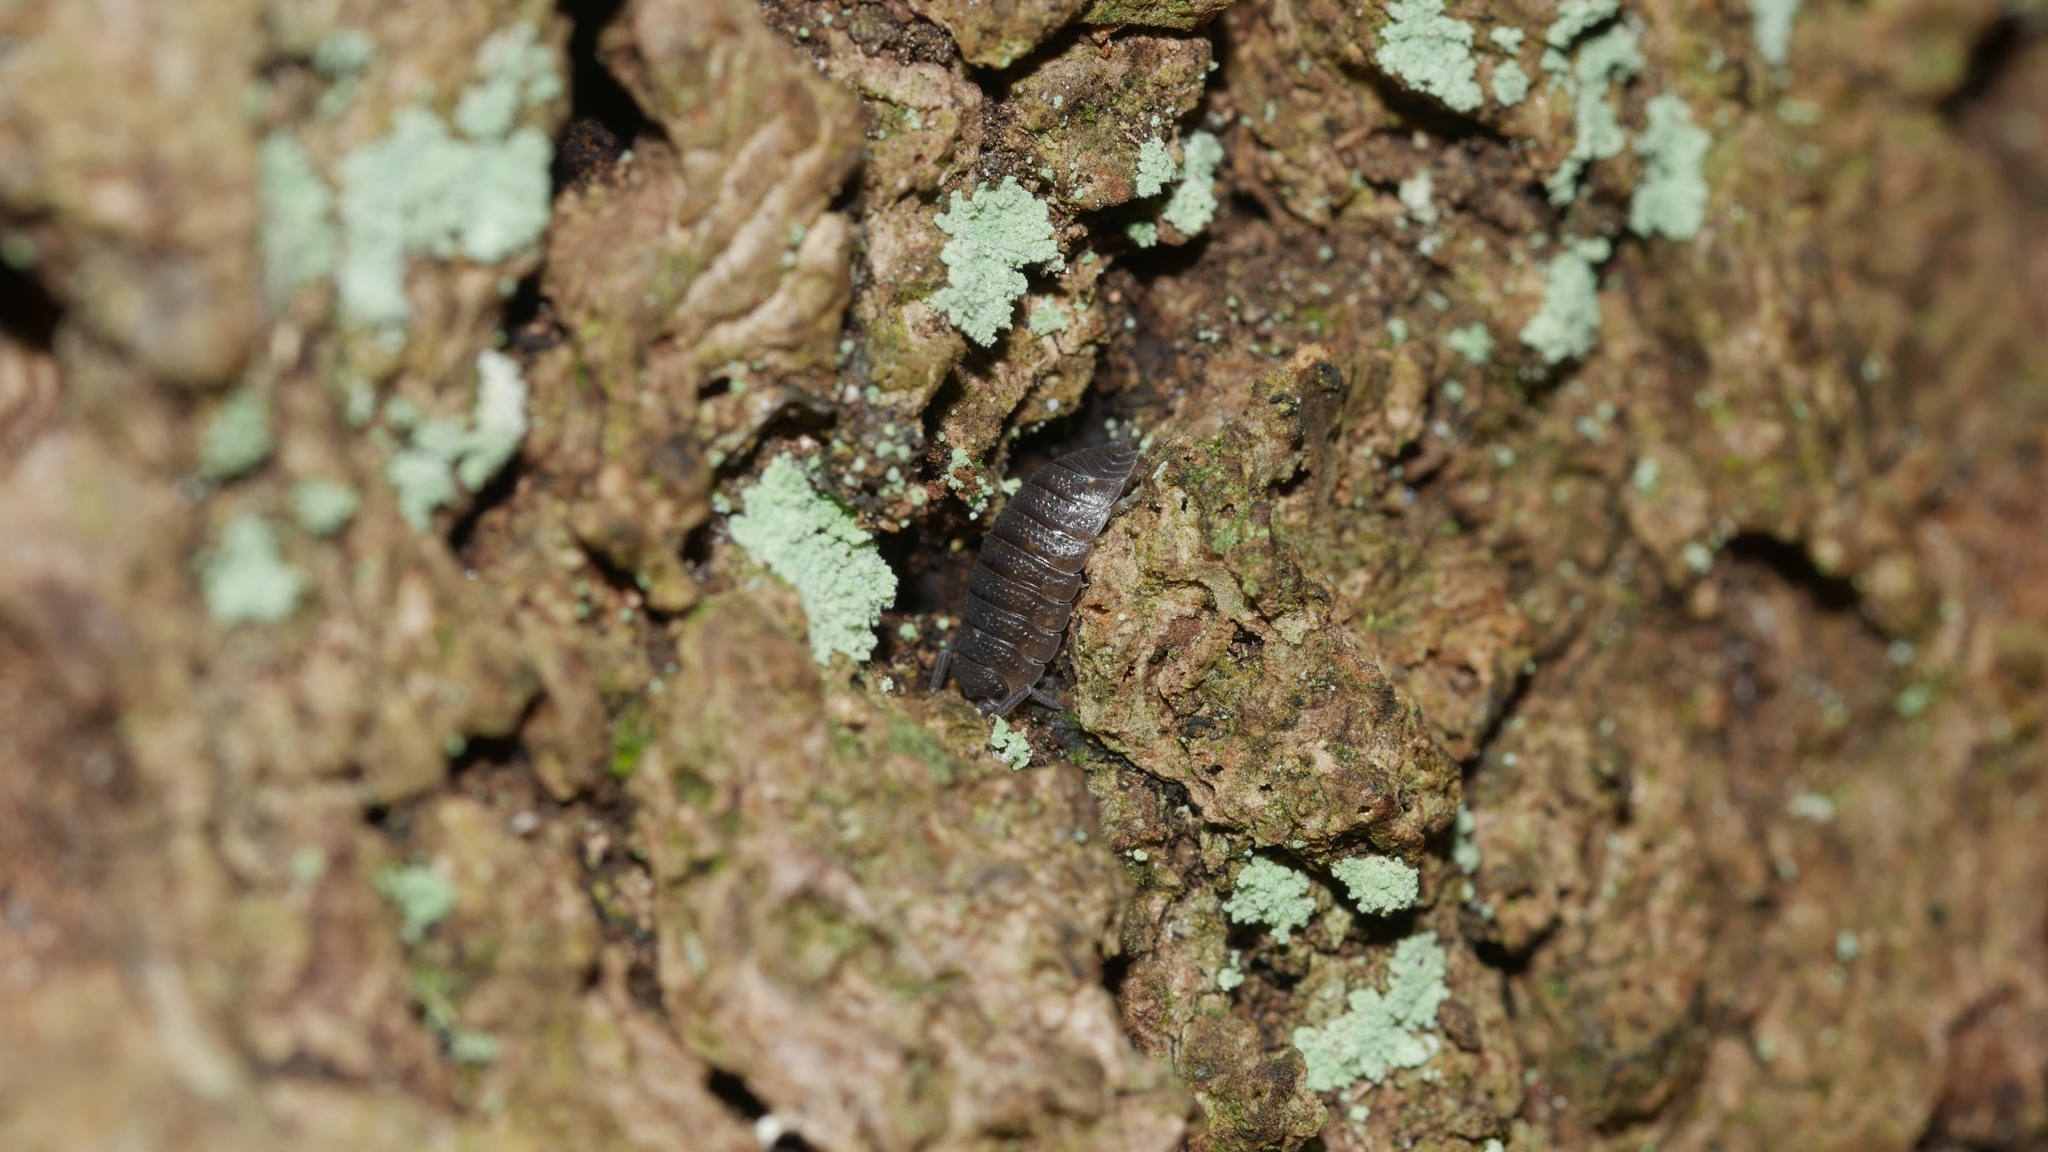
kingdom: Animalia
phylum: Arthropoda
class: Malacostraca
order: Isopoda
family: Porcellionidae
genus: Porcellio
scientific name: Porcellio scaber
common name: Common rough woodlouse
